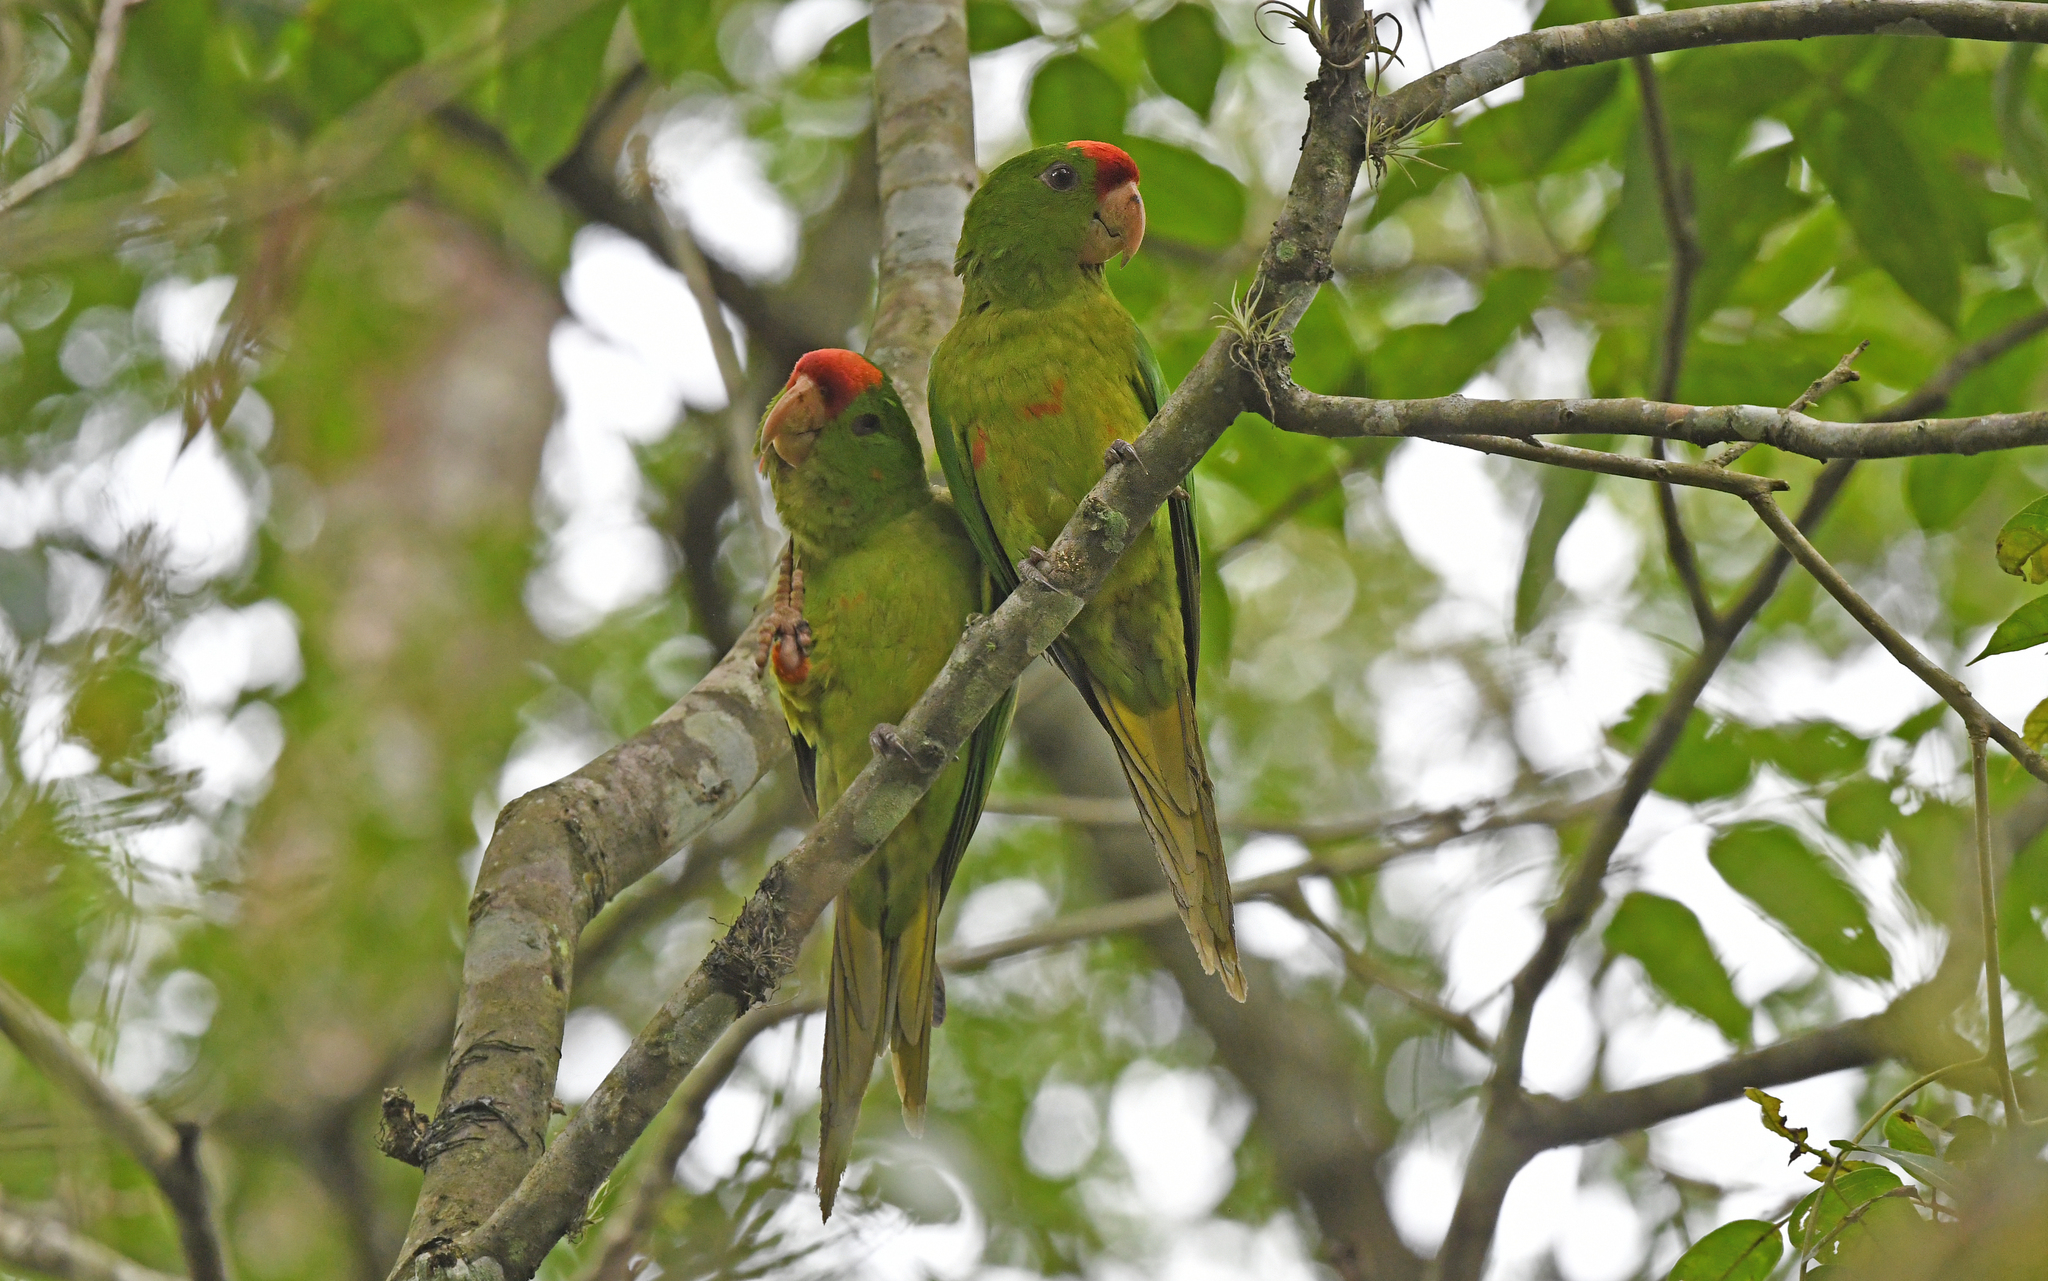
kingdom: Animalia
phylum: Chordata
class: Aves
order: Psittaciformes
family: Psittacidae
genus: Aratinga
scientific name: Aratinga wagleri
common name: Scarlet-fronted parakeet
